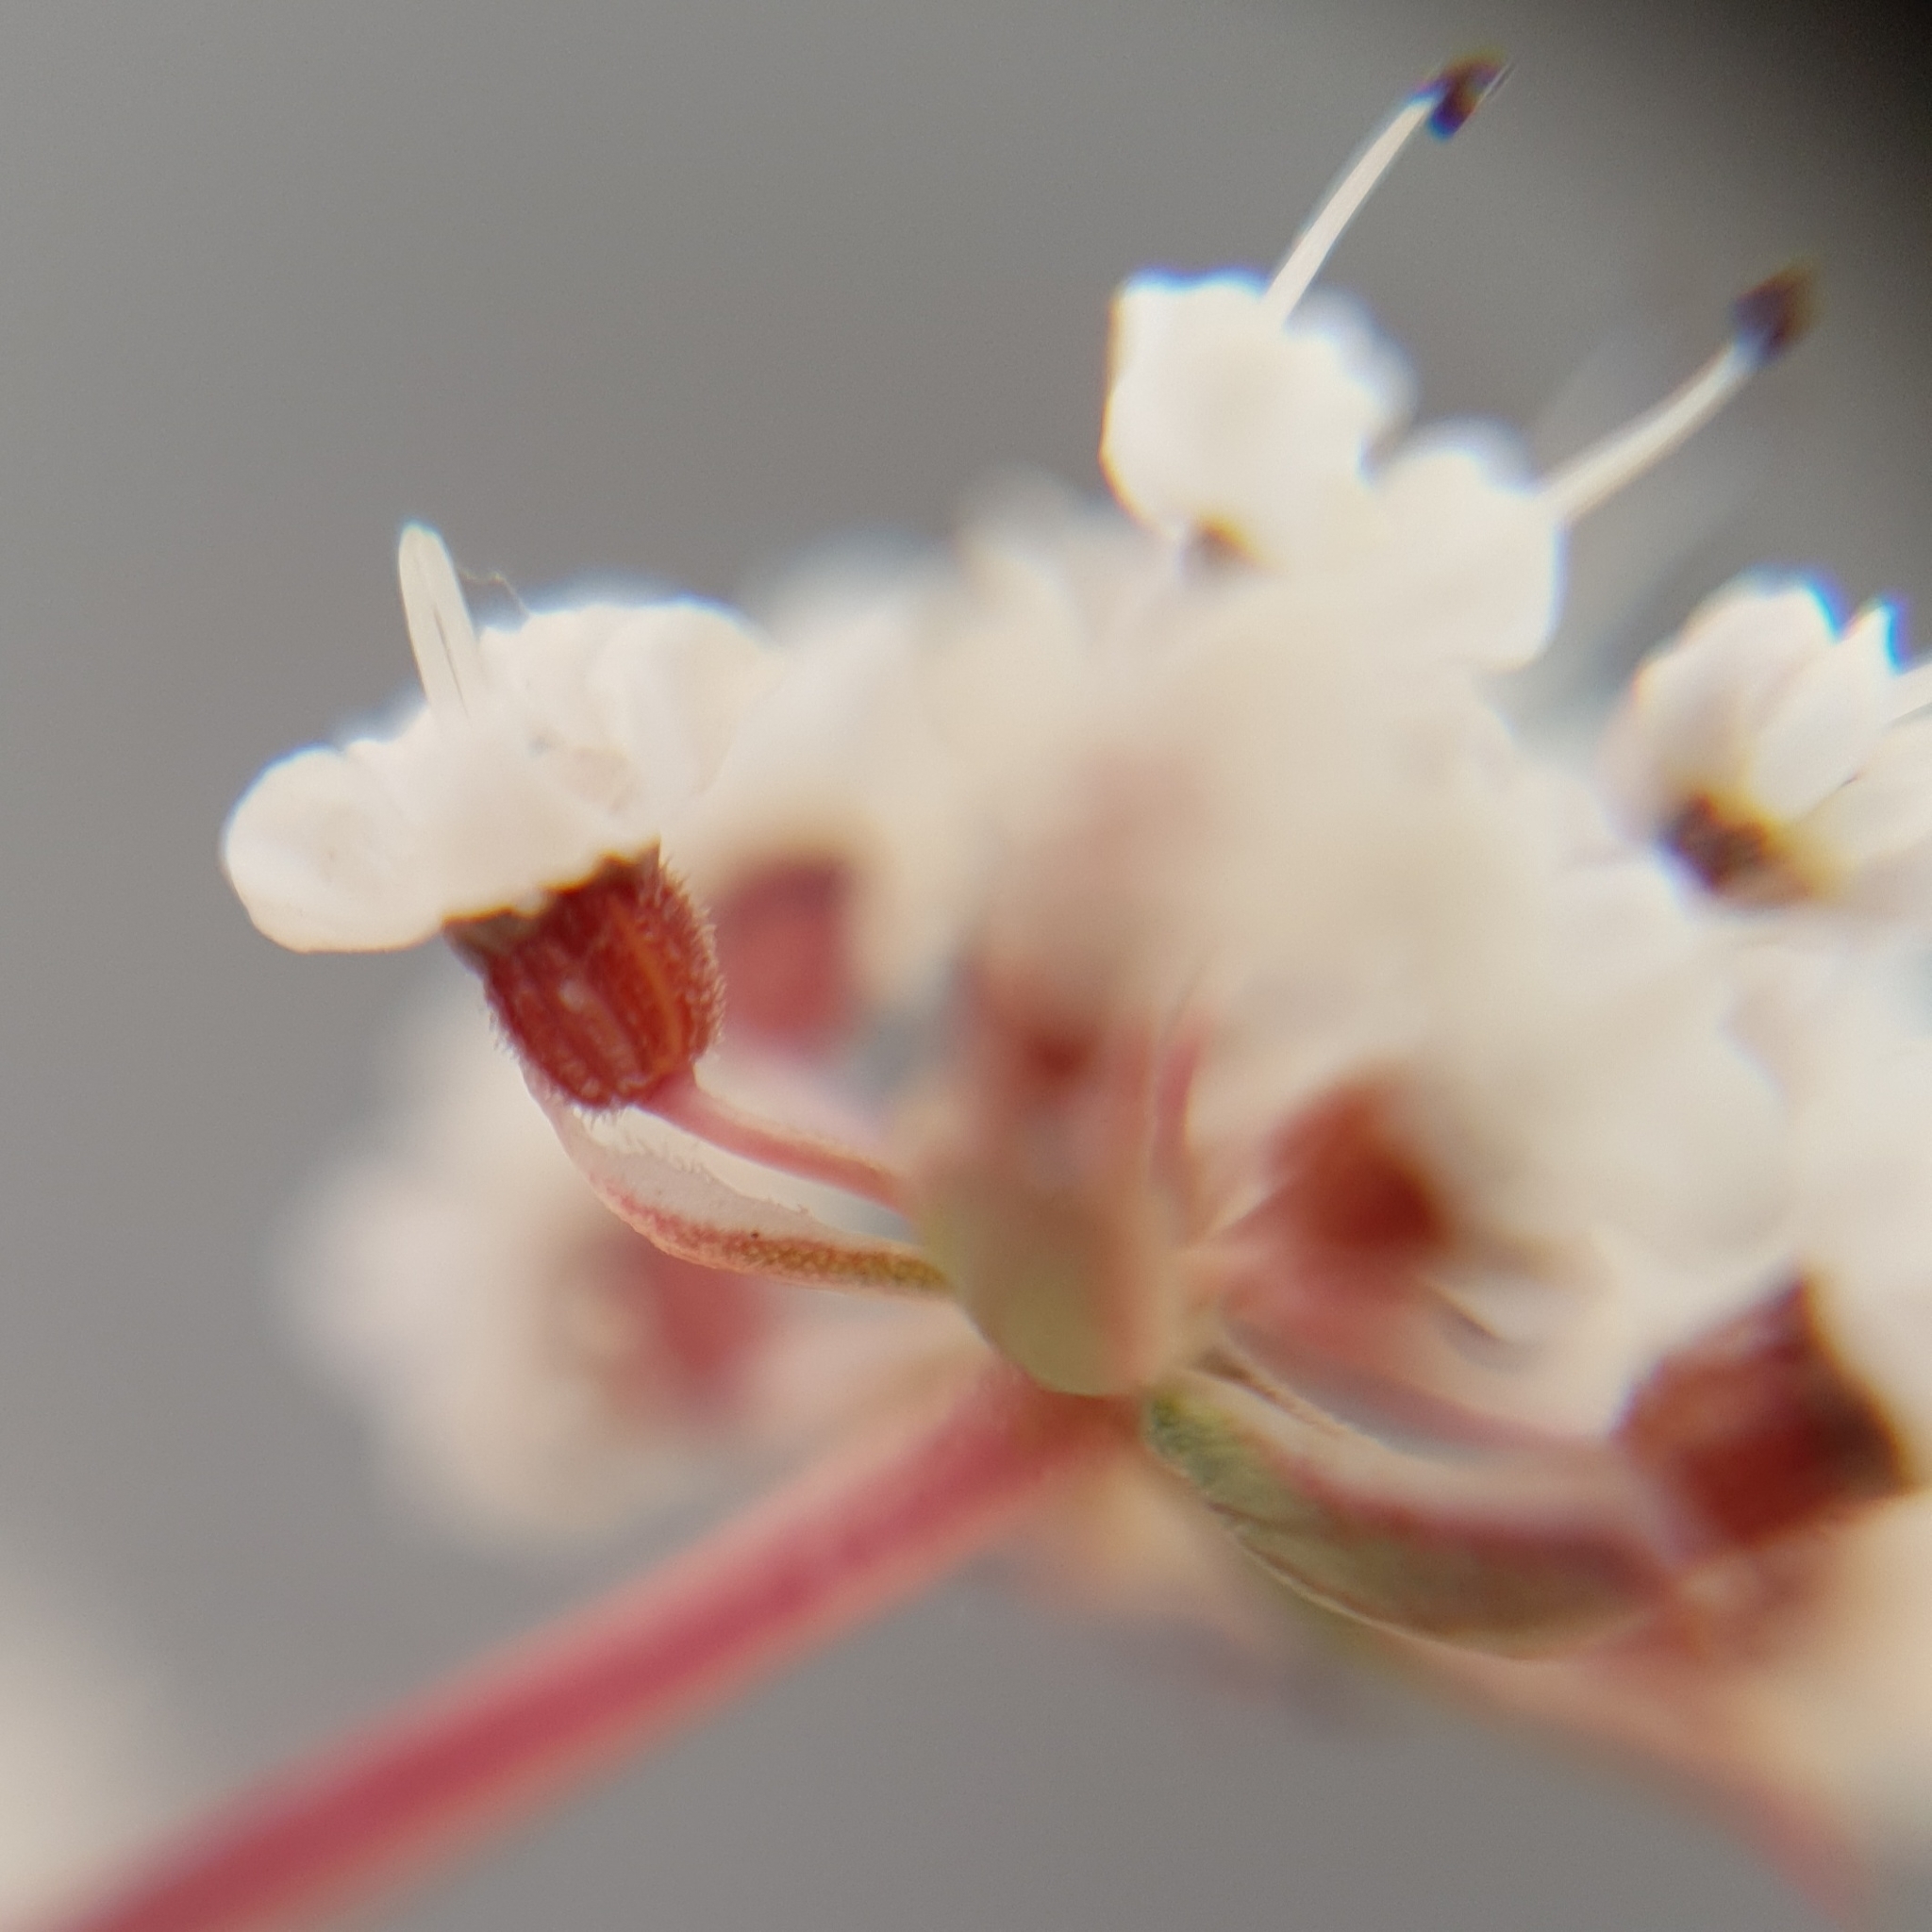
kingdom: Plantae
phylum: Tracheophyta
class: Magnoliopsida
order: Apiales
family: Apiaceae
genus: Daucus
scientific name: Daucus virgatus
